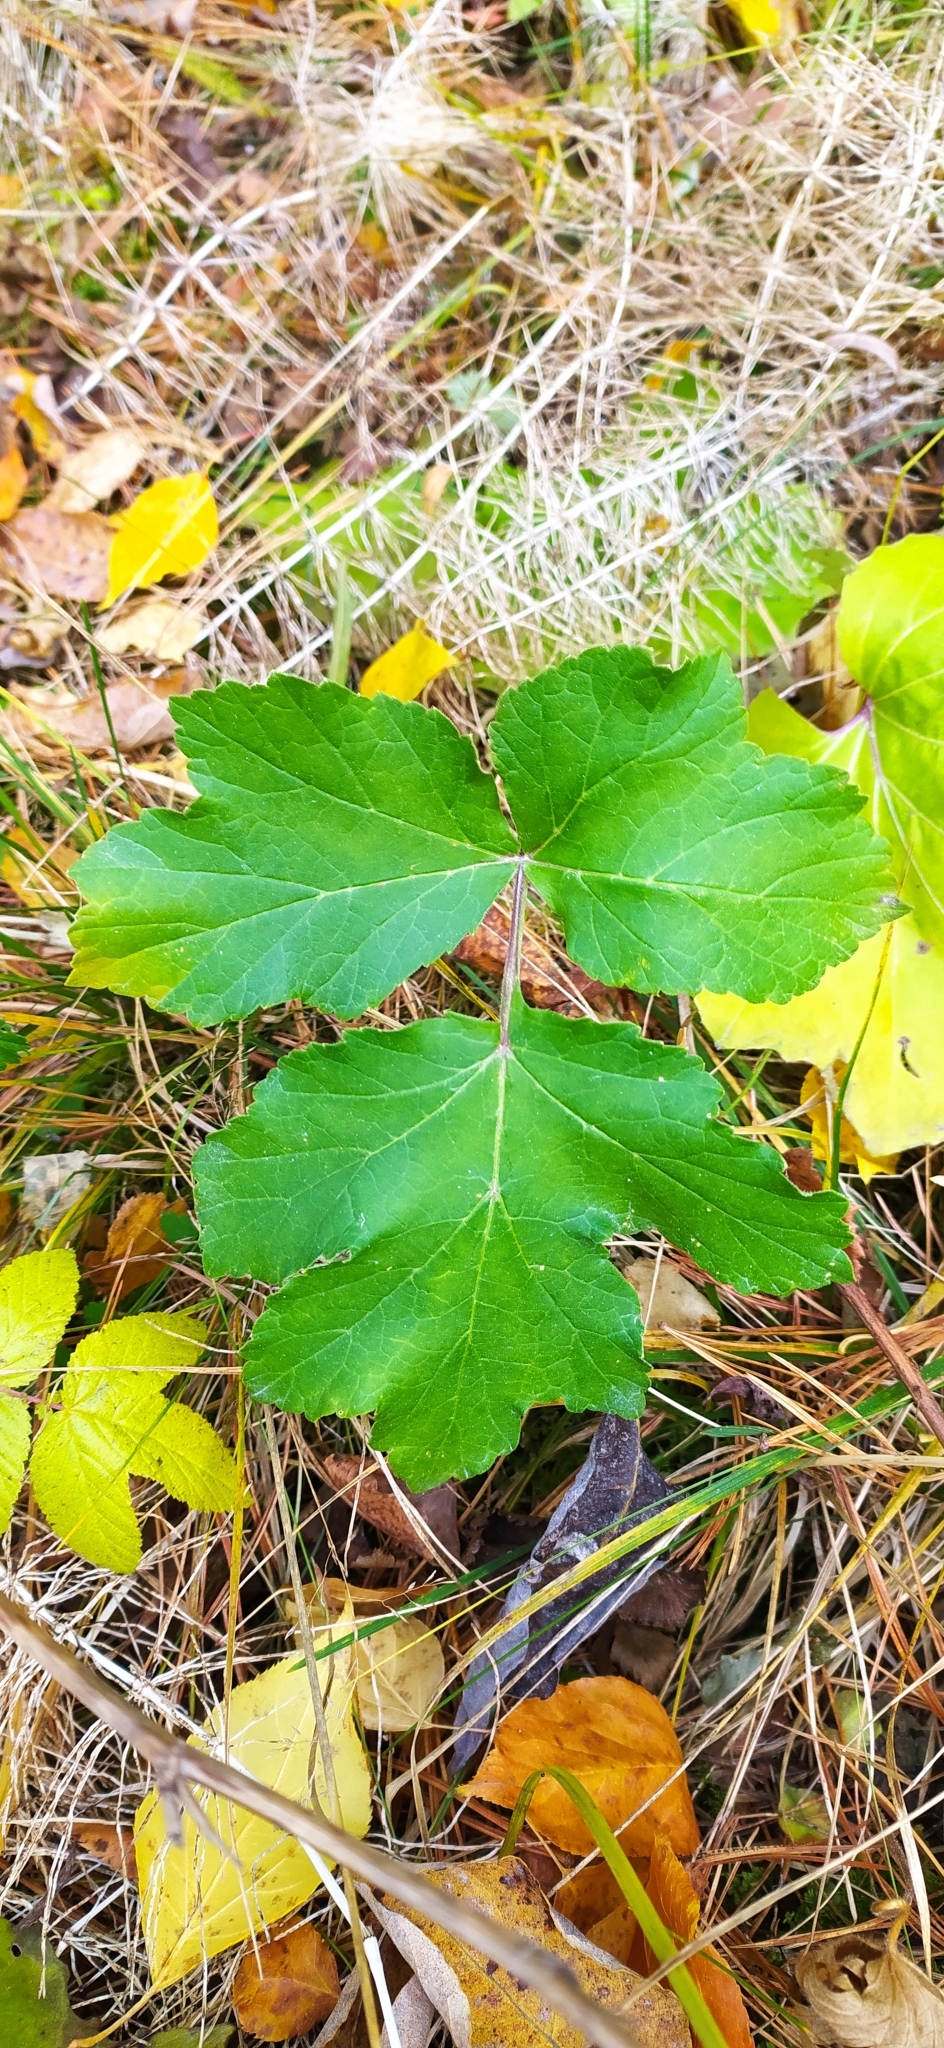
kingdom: Plantae
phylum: Tracheophyta
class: Magnoliopsida
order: Apiales
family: Apiaceae
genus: Heracleum
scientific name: Heracleum sphondylium
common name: Hogweed
